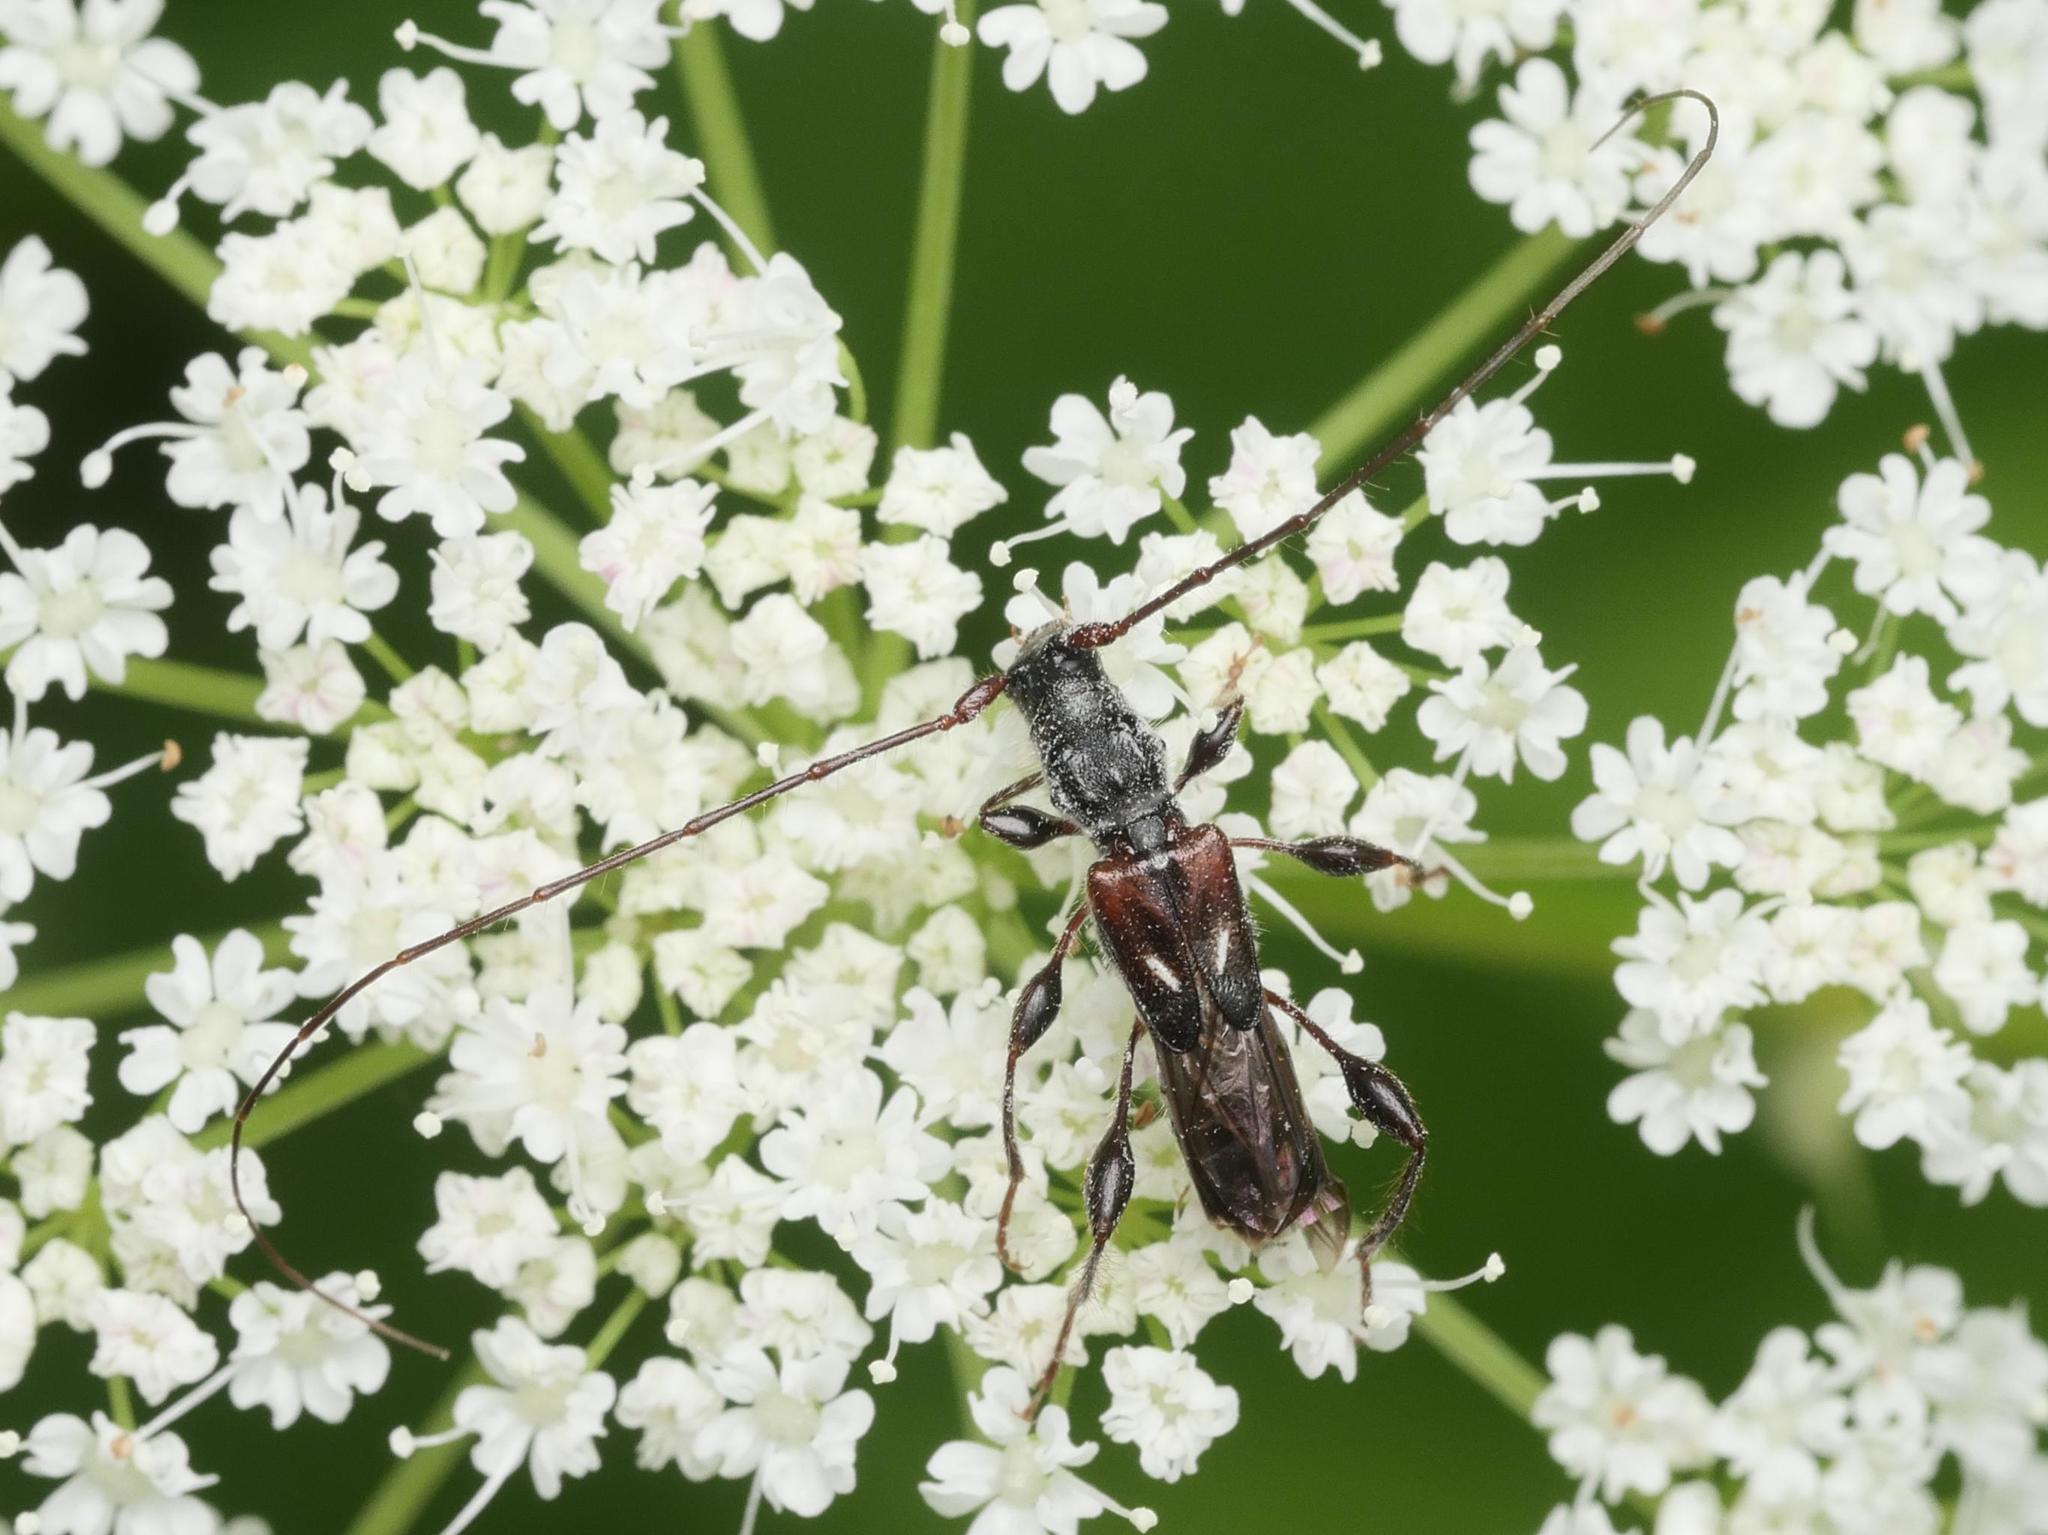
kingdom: Animalia
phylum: Arthropoda
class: Insecta
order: Coleoptera
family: Cerambycidae
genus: Molorchus
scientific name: Molorchus minor
